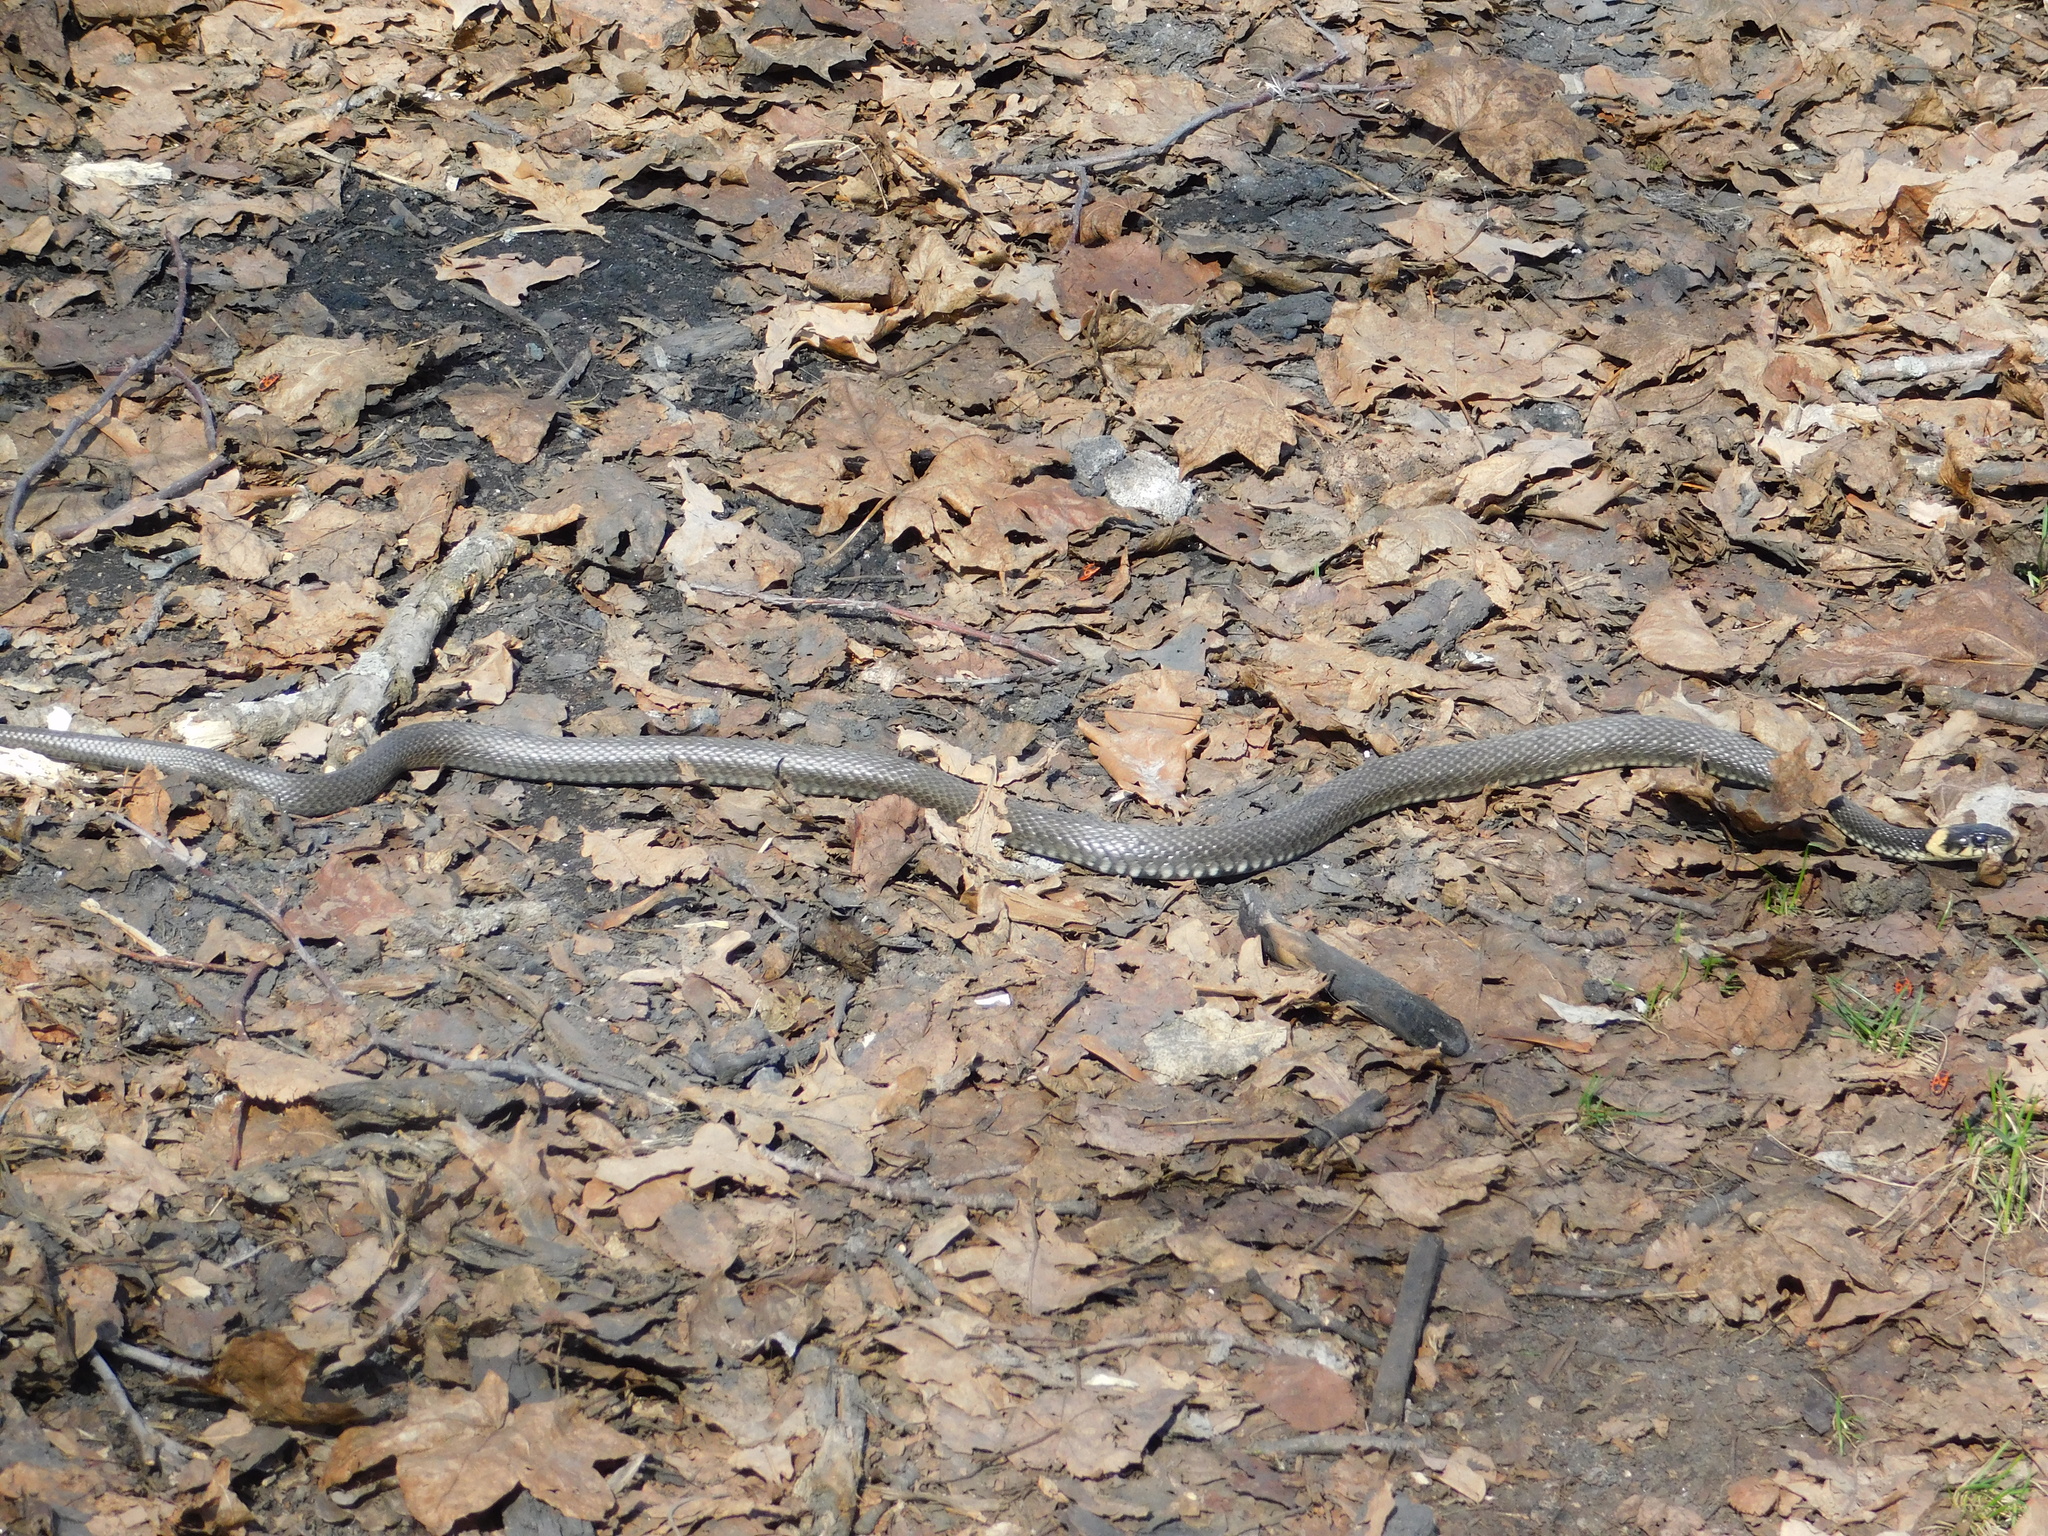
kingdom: Animalia
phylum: Chordata
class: Squamata
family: Colubridae
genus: Natrix
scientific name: Natrix natrix
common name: Grass snake
